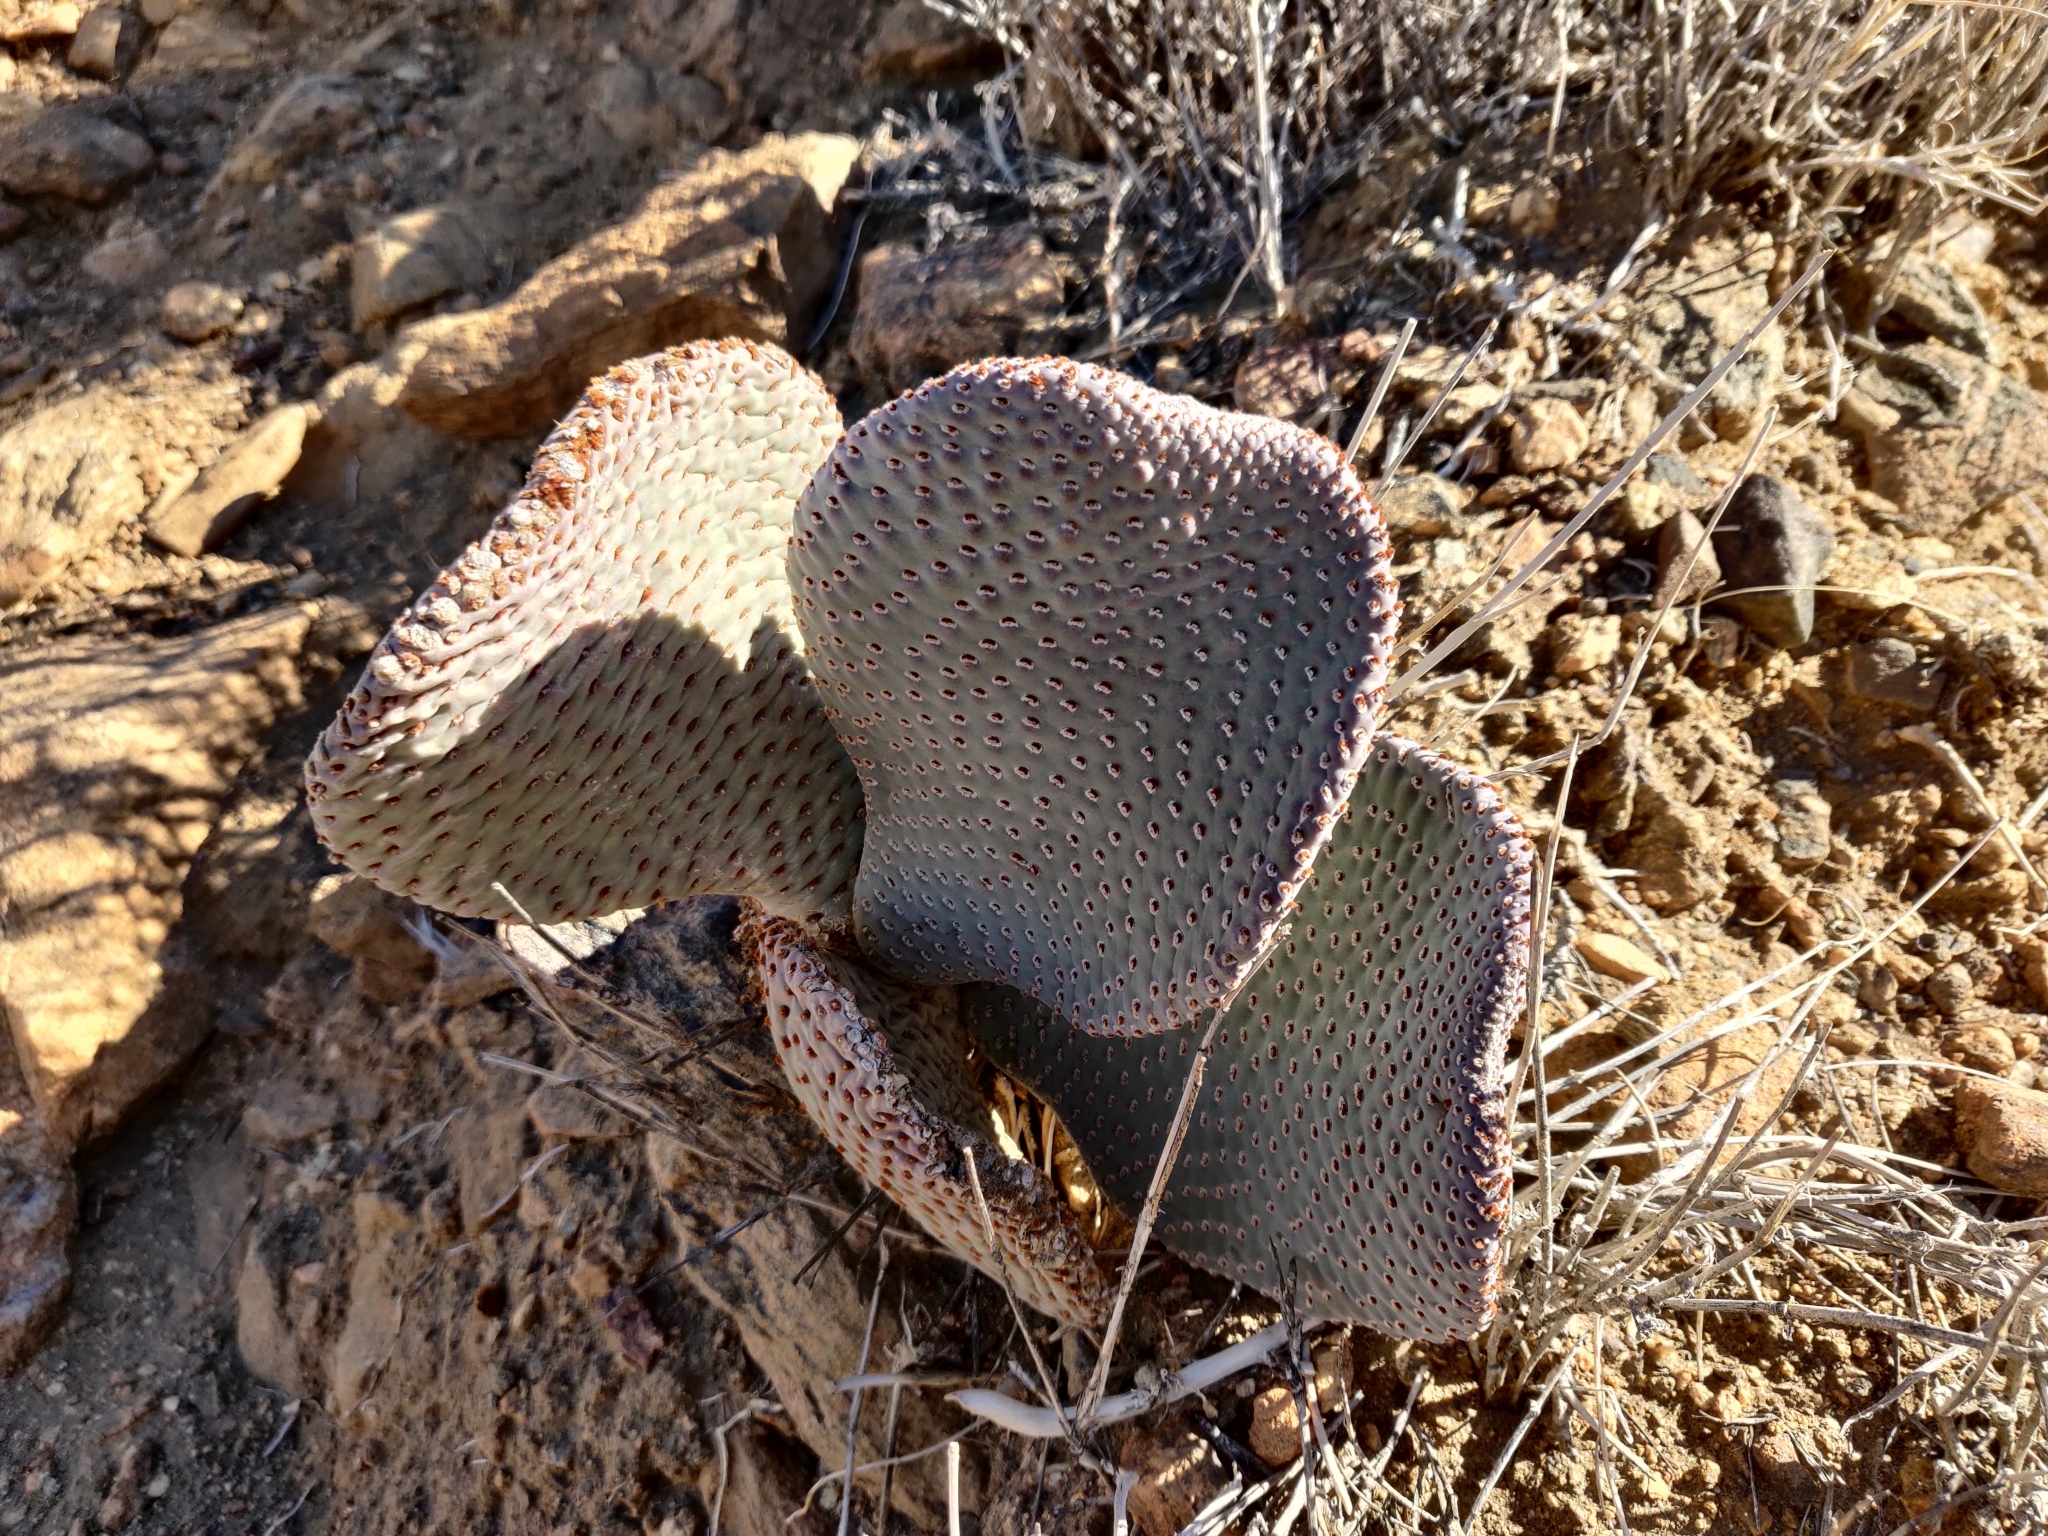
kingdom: Plantae
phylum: Tracheophyta
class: Magnoliopsida
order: Caryophyllales
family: Cactaceae
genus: Opuntia
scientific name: Opuntia basilaris
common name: Beavertail prickly-pear
